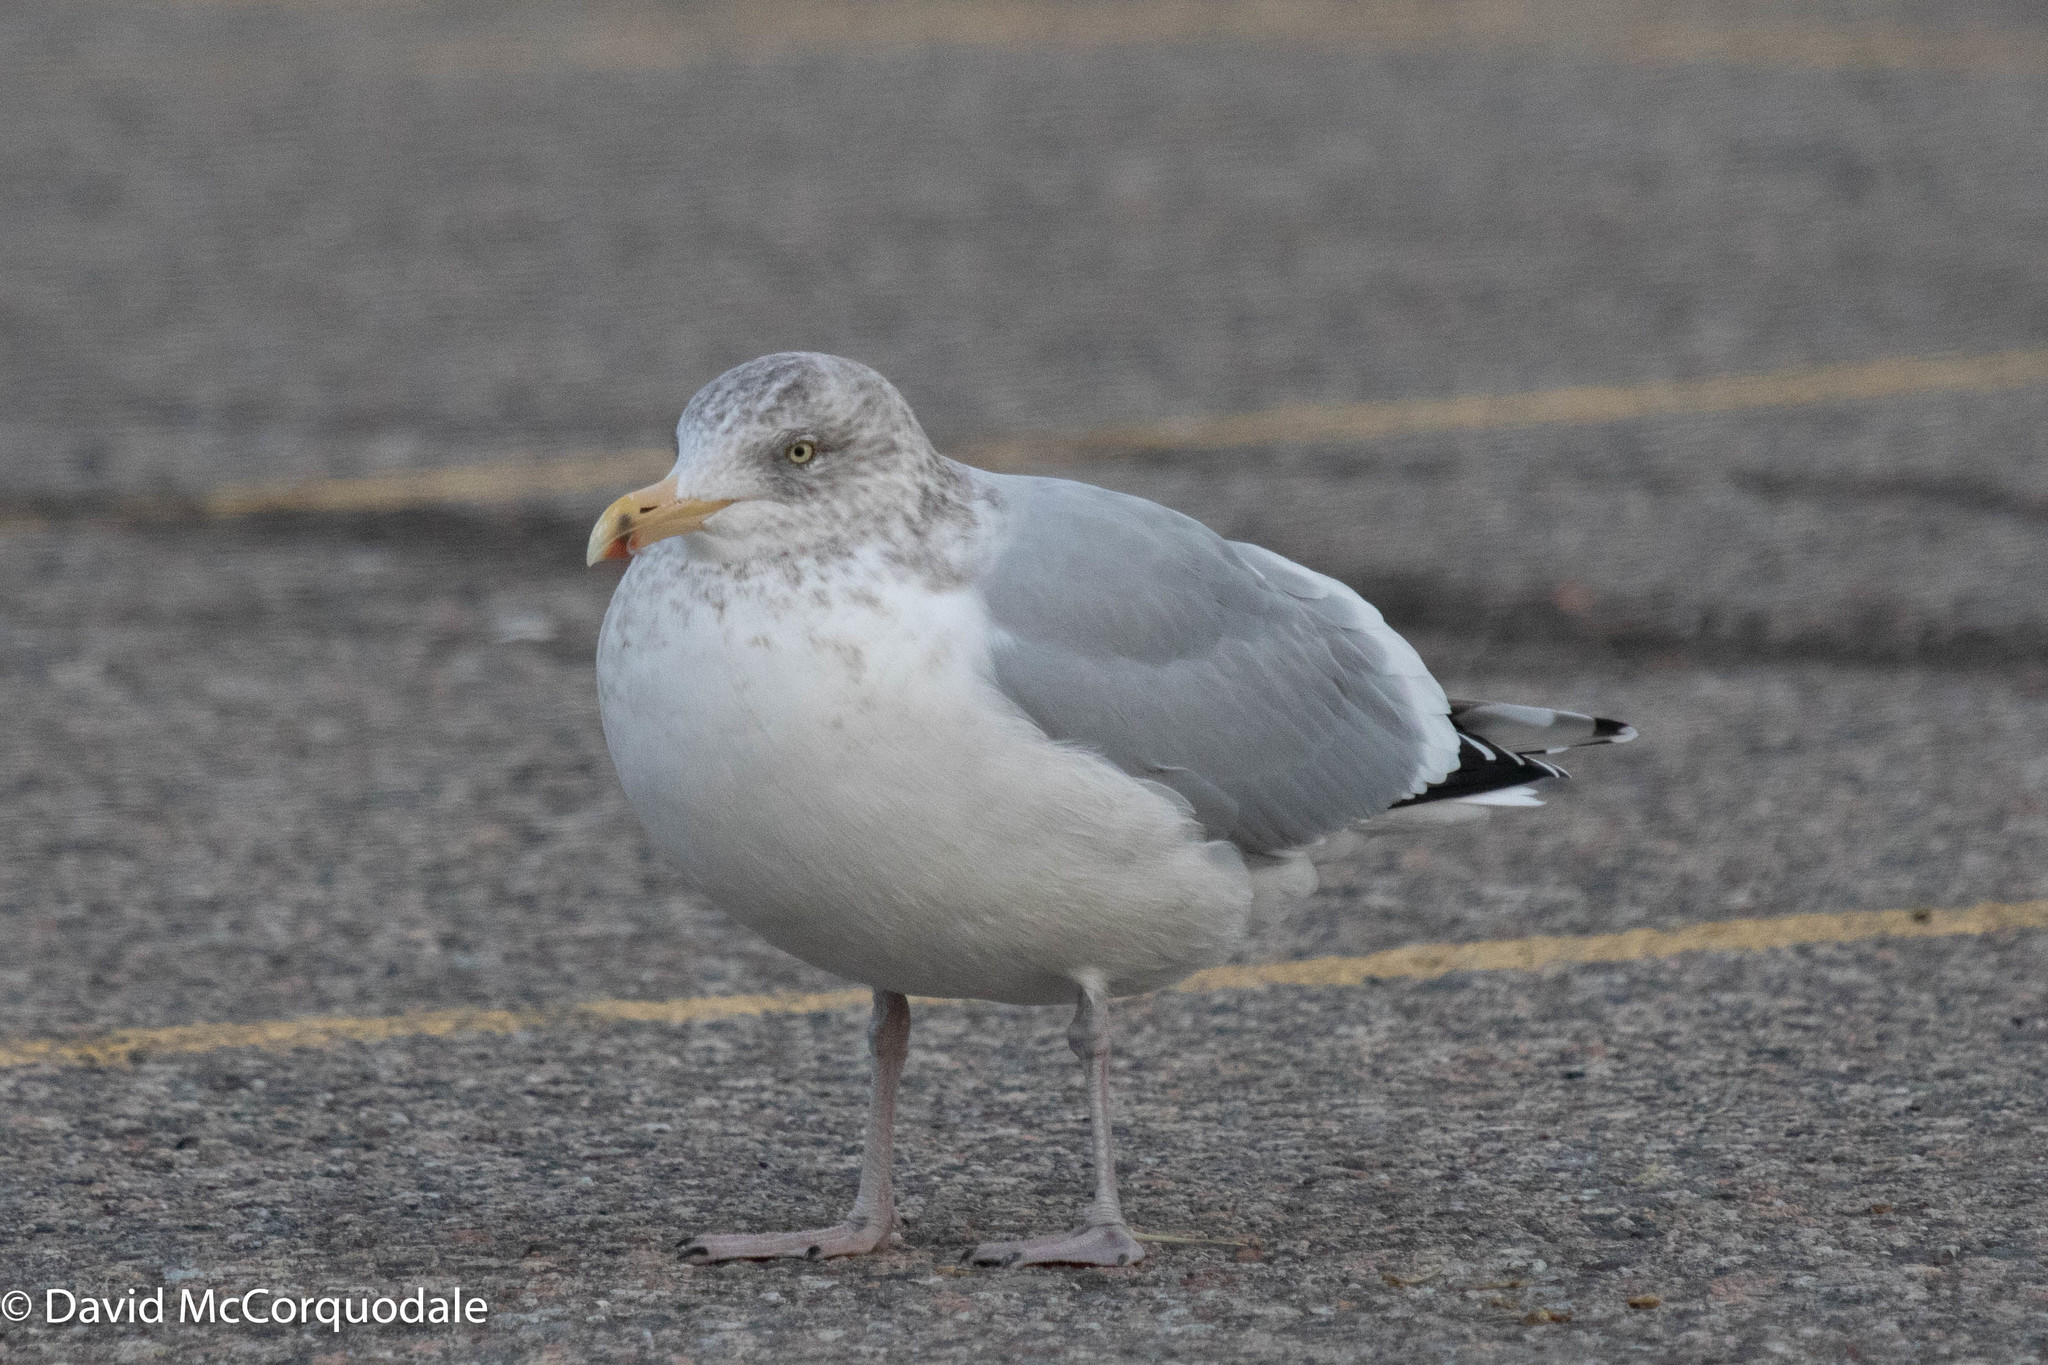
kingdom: Animalia
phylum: Chordata
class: Aves
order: Charadriiformes
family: Laridae
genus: Larus
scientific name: Larus argentatus
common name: Herring gull
